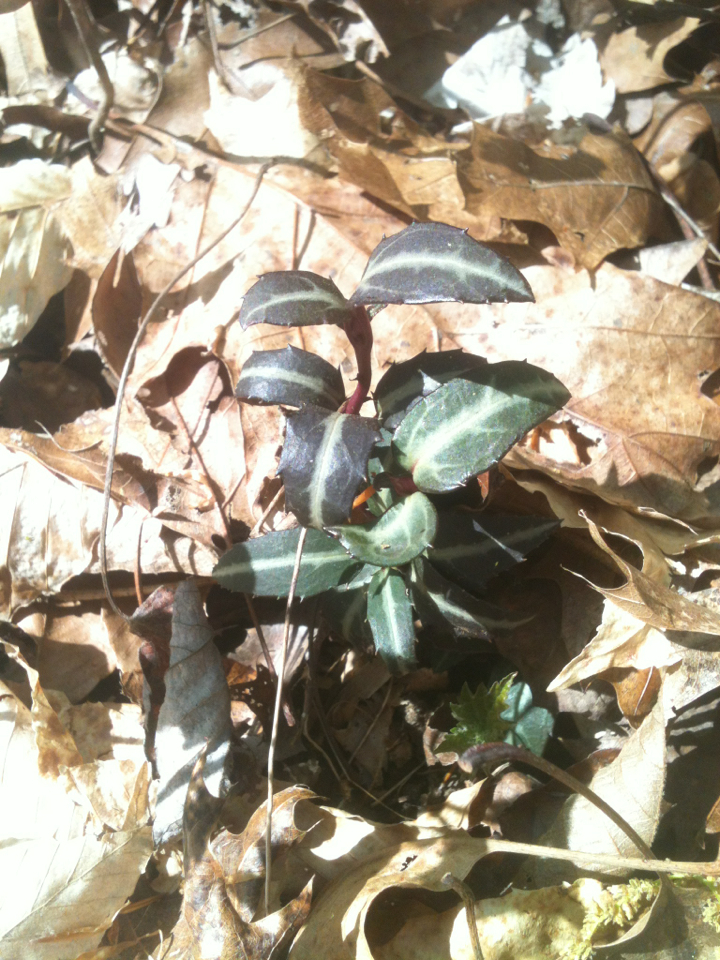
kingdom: Plantae
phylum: Tracheophyta
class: Magnoliopsida
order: Ericales
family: Ericaceae
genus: Chimaphila
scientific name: Chimaphila maculata
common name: Spotted pipsissewa
